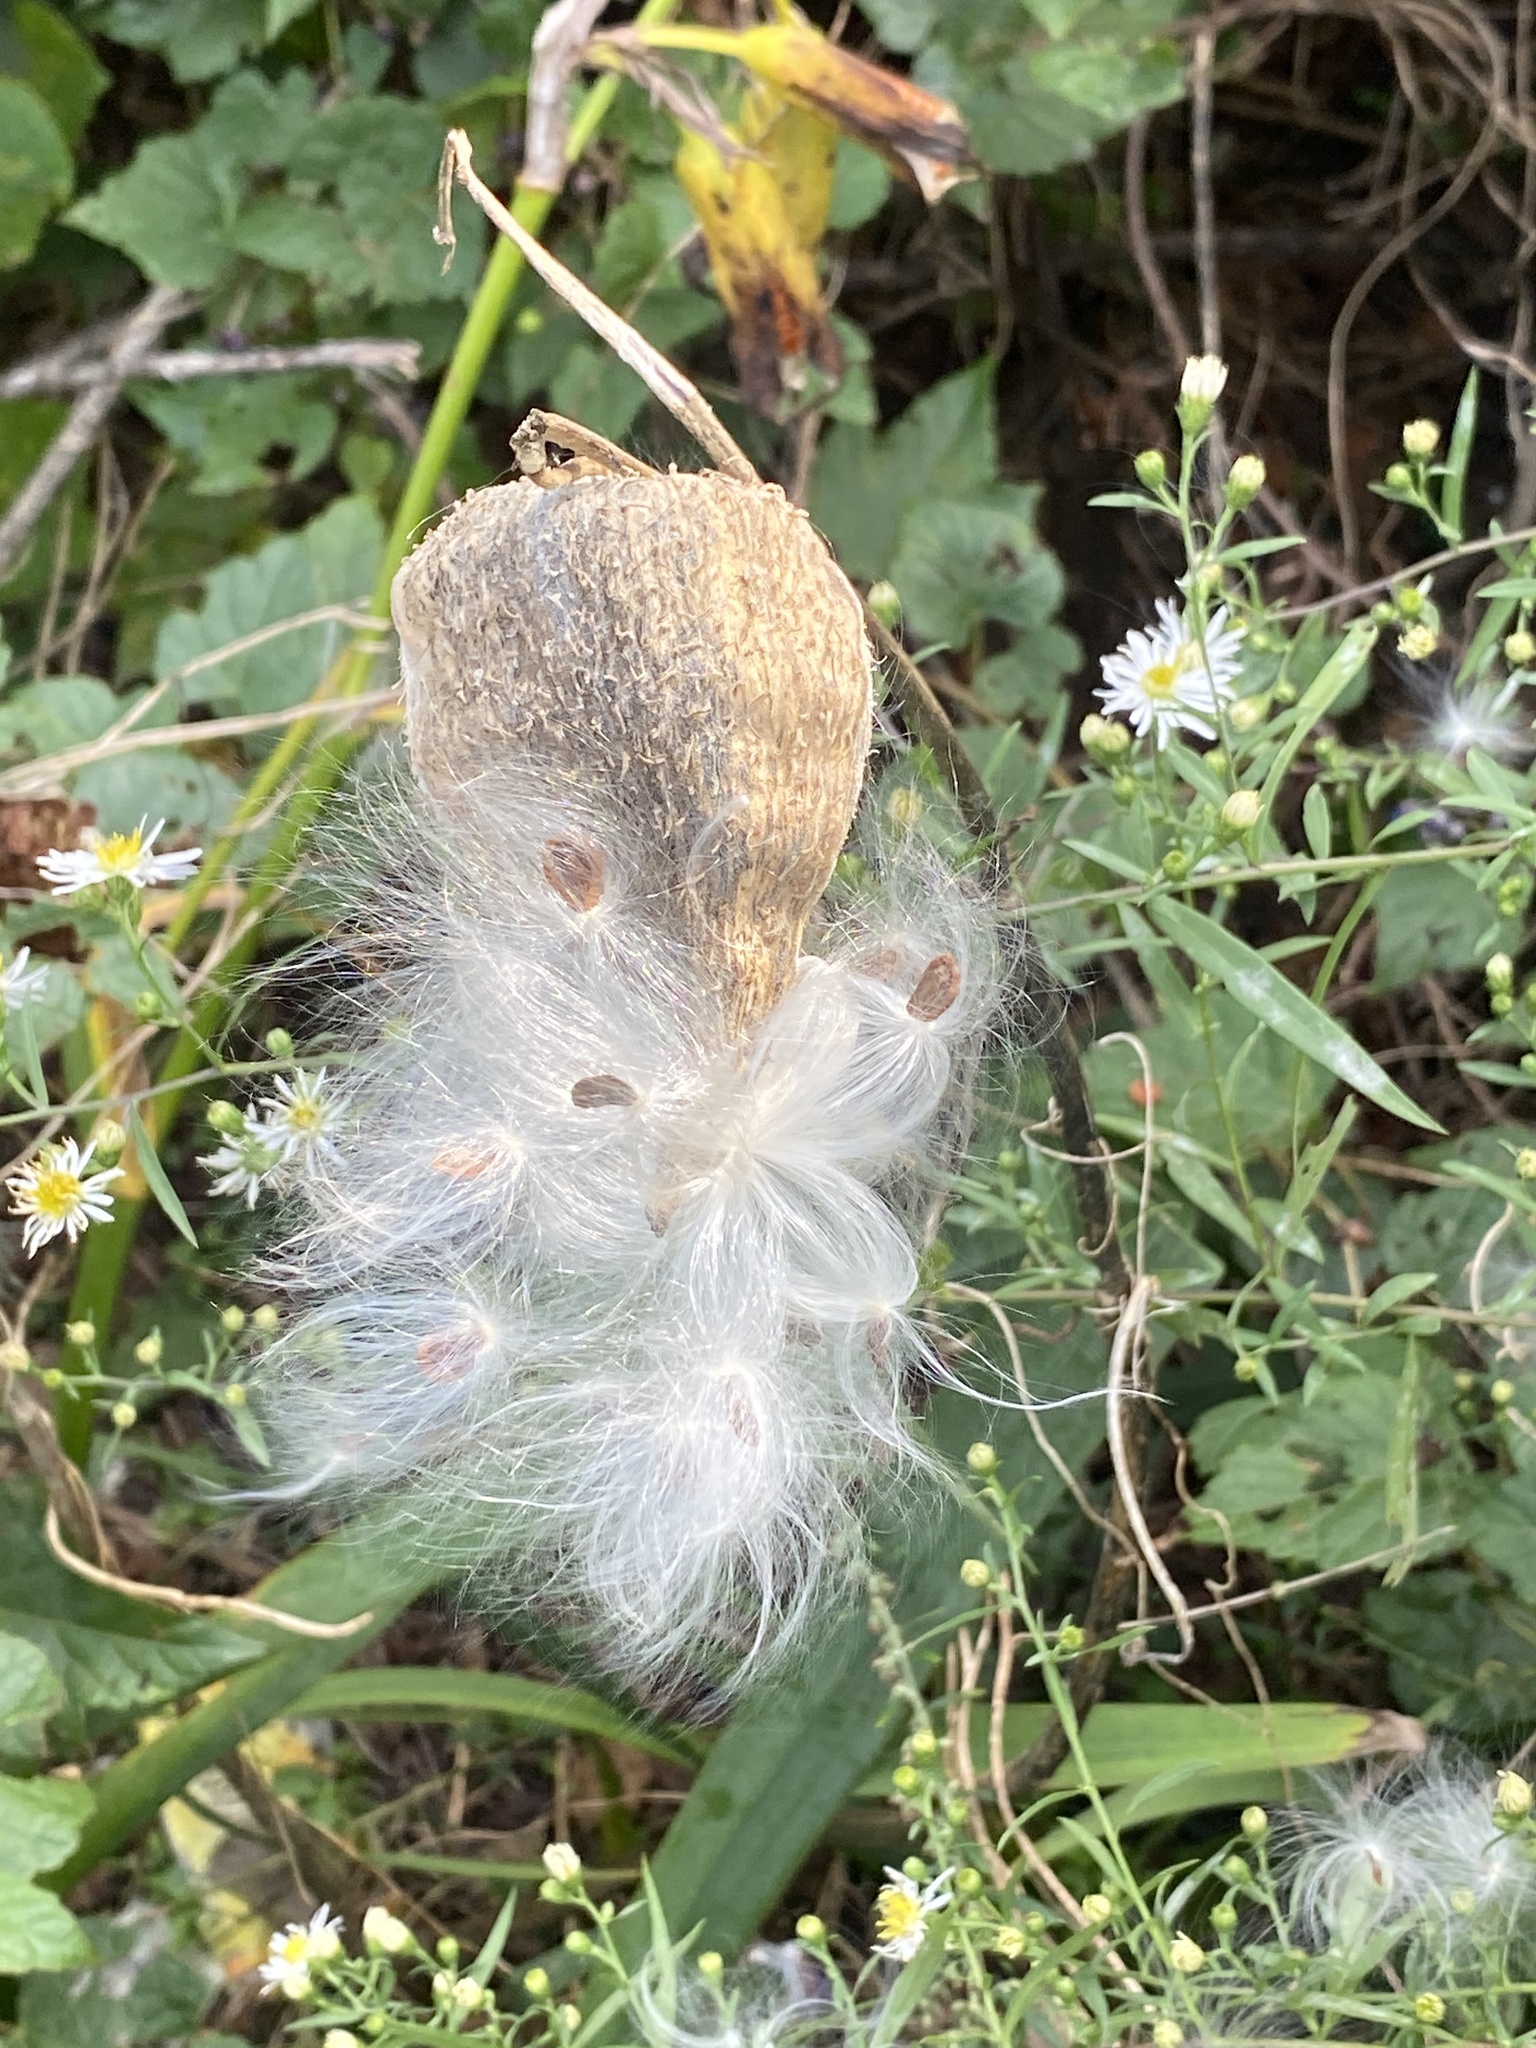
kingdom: Plantae
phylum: Tracheophyta
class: Magnoliopsida
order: Gentianales
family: Apocynaceae
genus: Asclepias
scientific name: Asclepias syriaca
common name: Common milkweed
